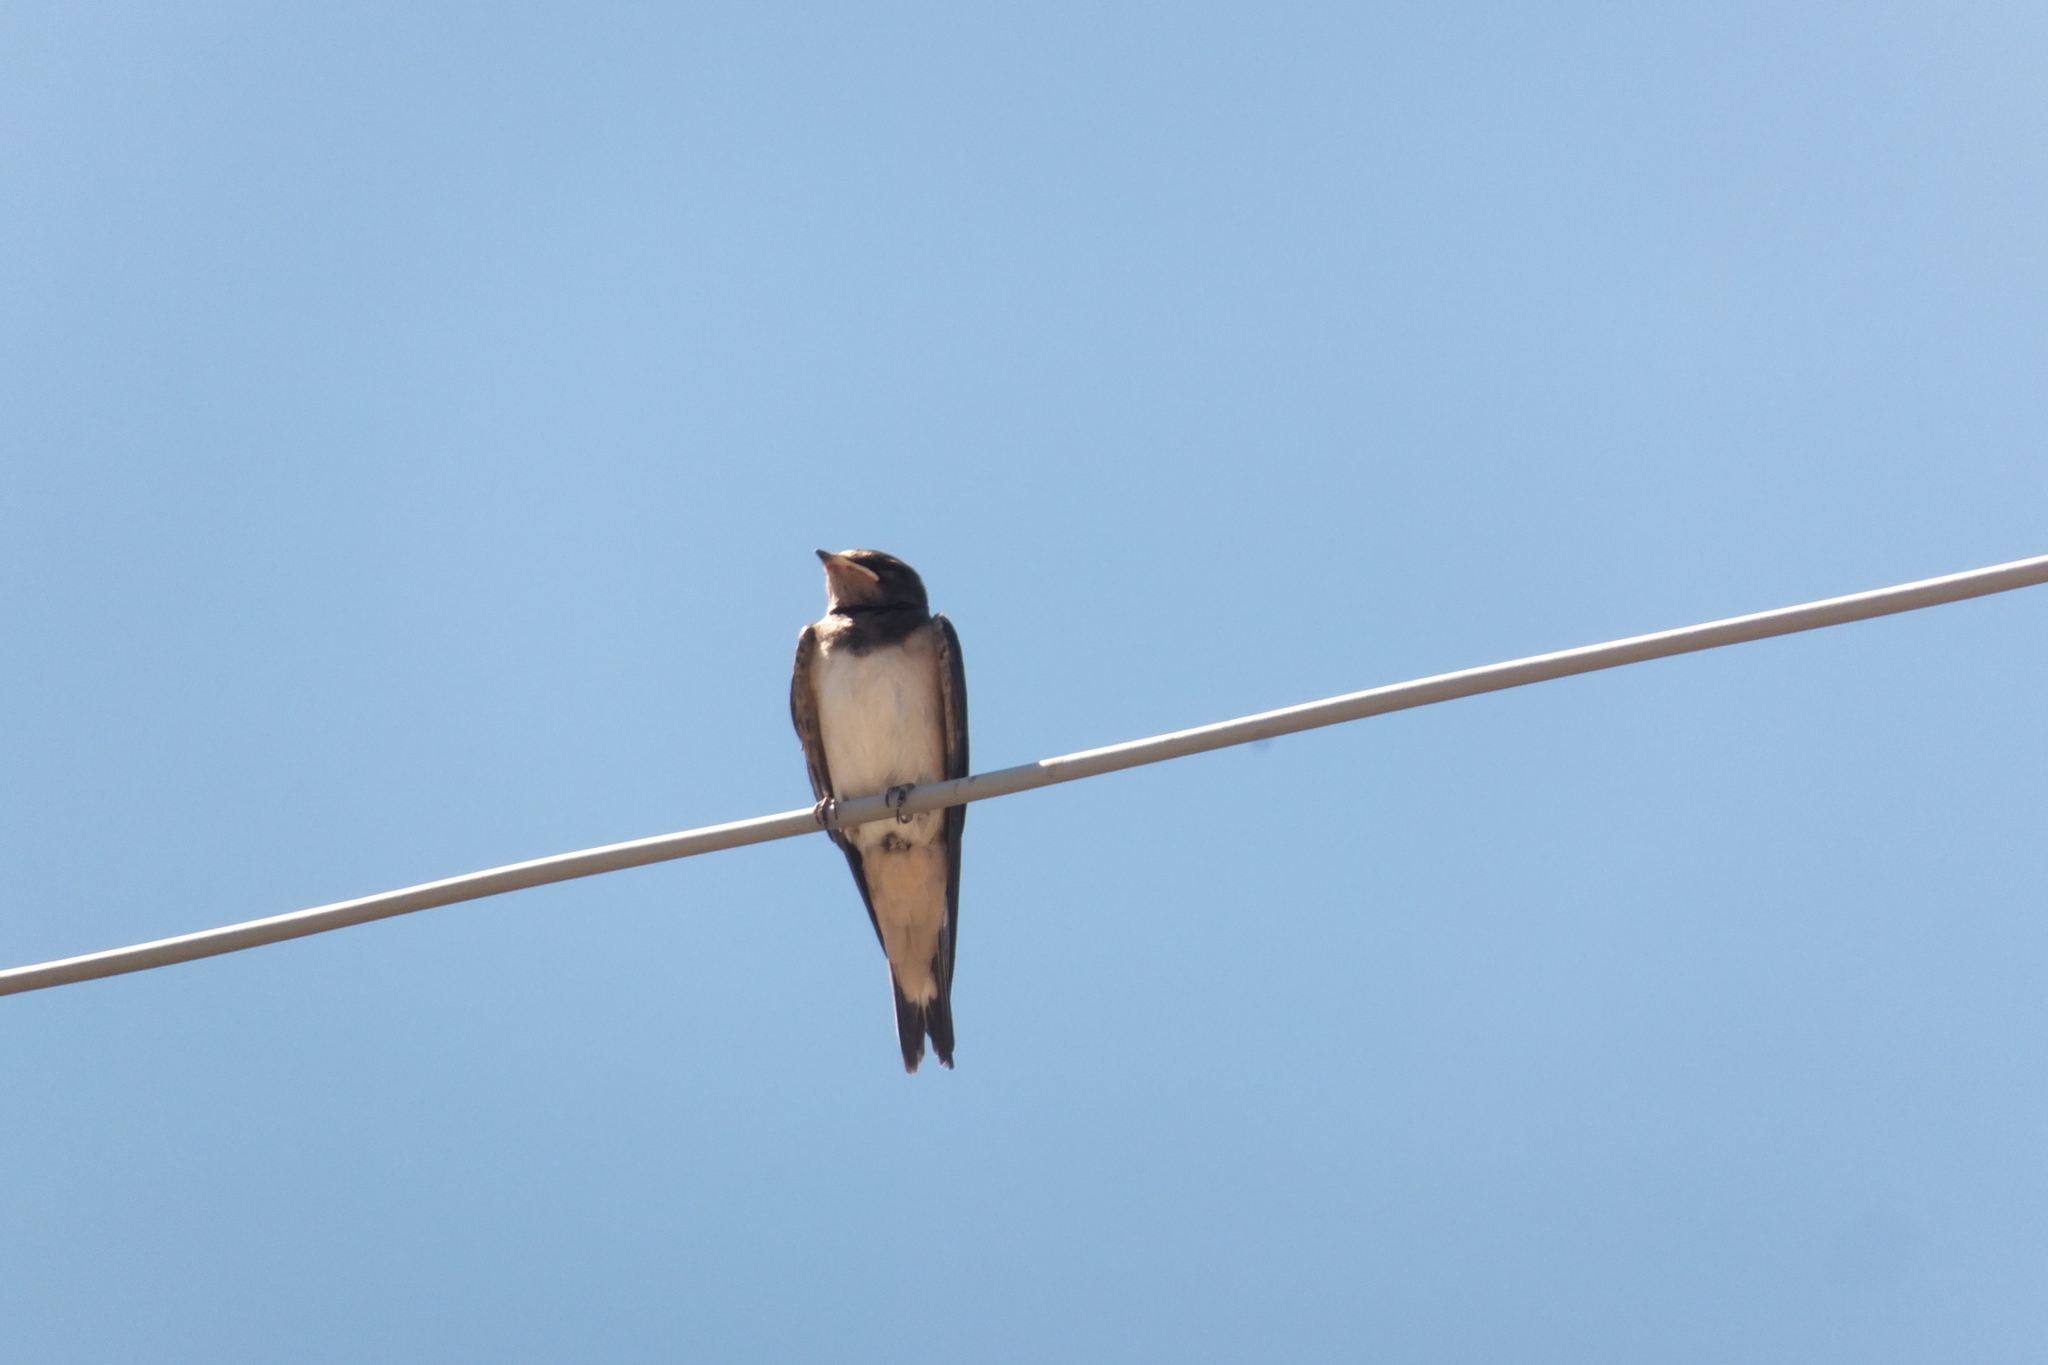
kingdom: Animalia
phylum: Chordata
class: Aves
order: Passeriformes
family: Hirundinidae
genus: Hirundo
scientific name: Hirundo rustica
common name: Barn swallow
